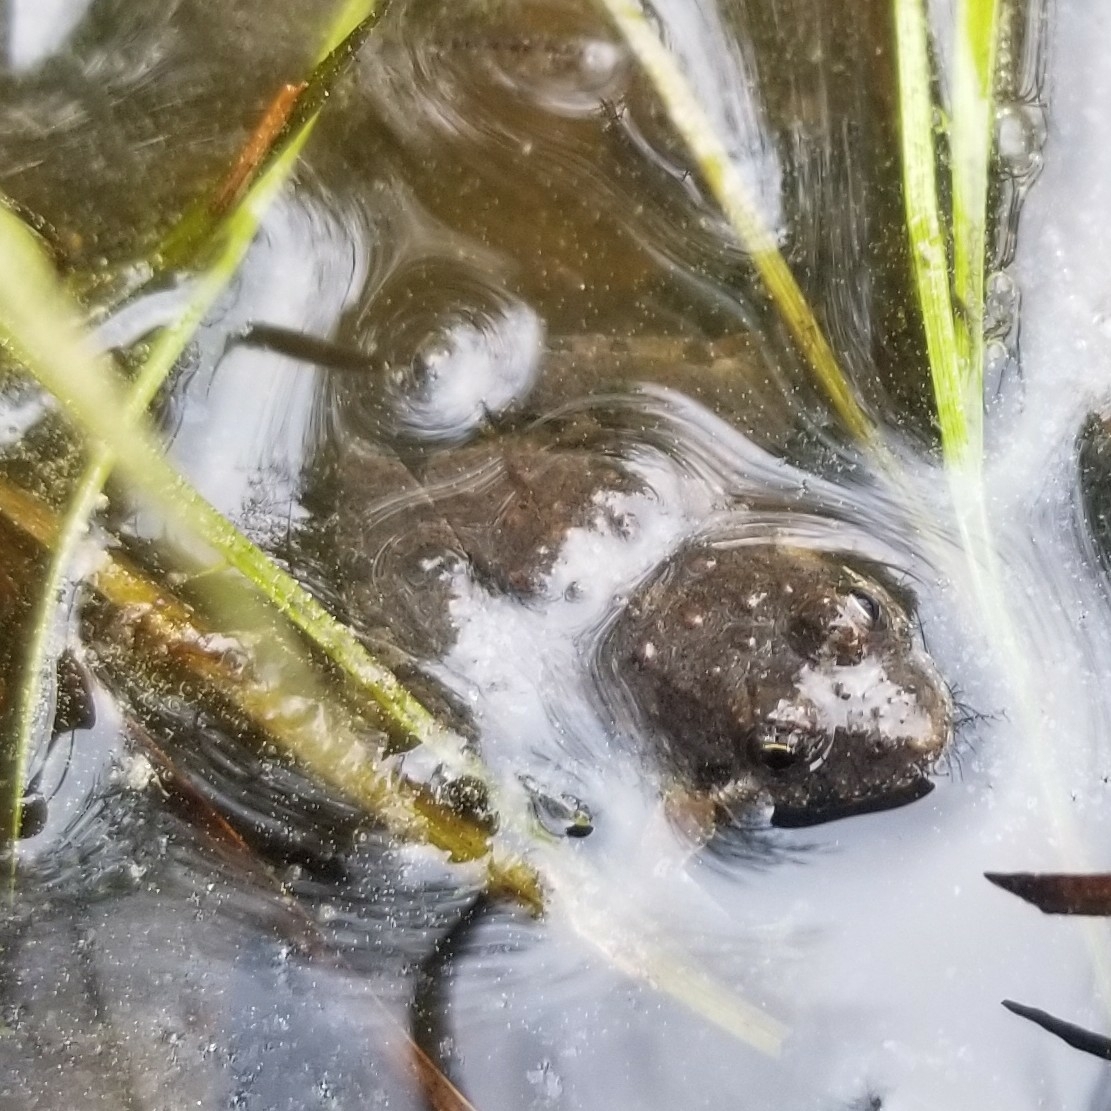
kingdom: Animalia
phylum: Chordata
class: Amphibia
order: Anura
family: Hylidae
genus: Acris
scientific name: Acris crepitans
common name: Northern cricket frog
